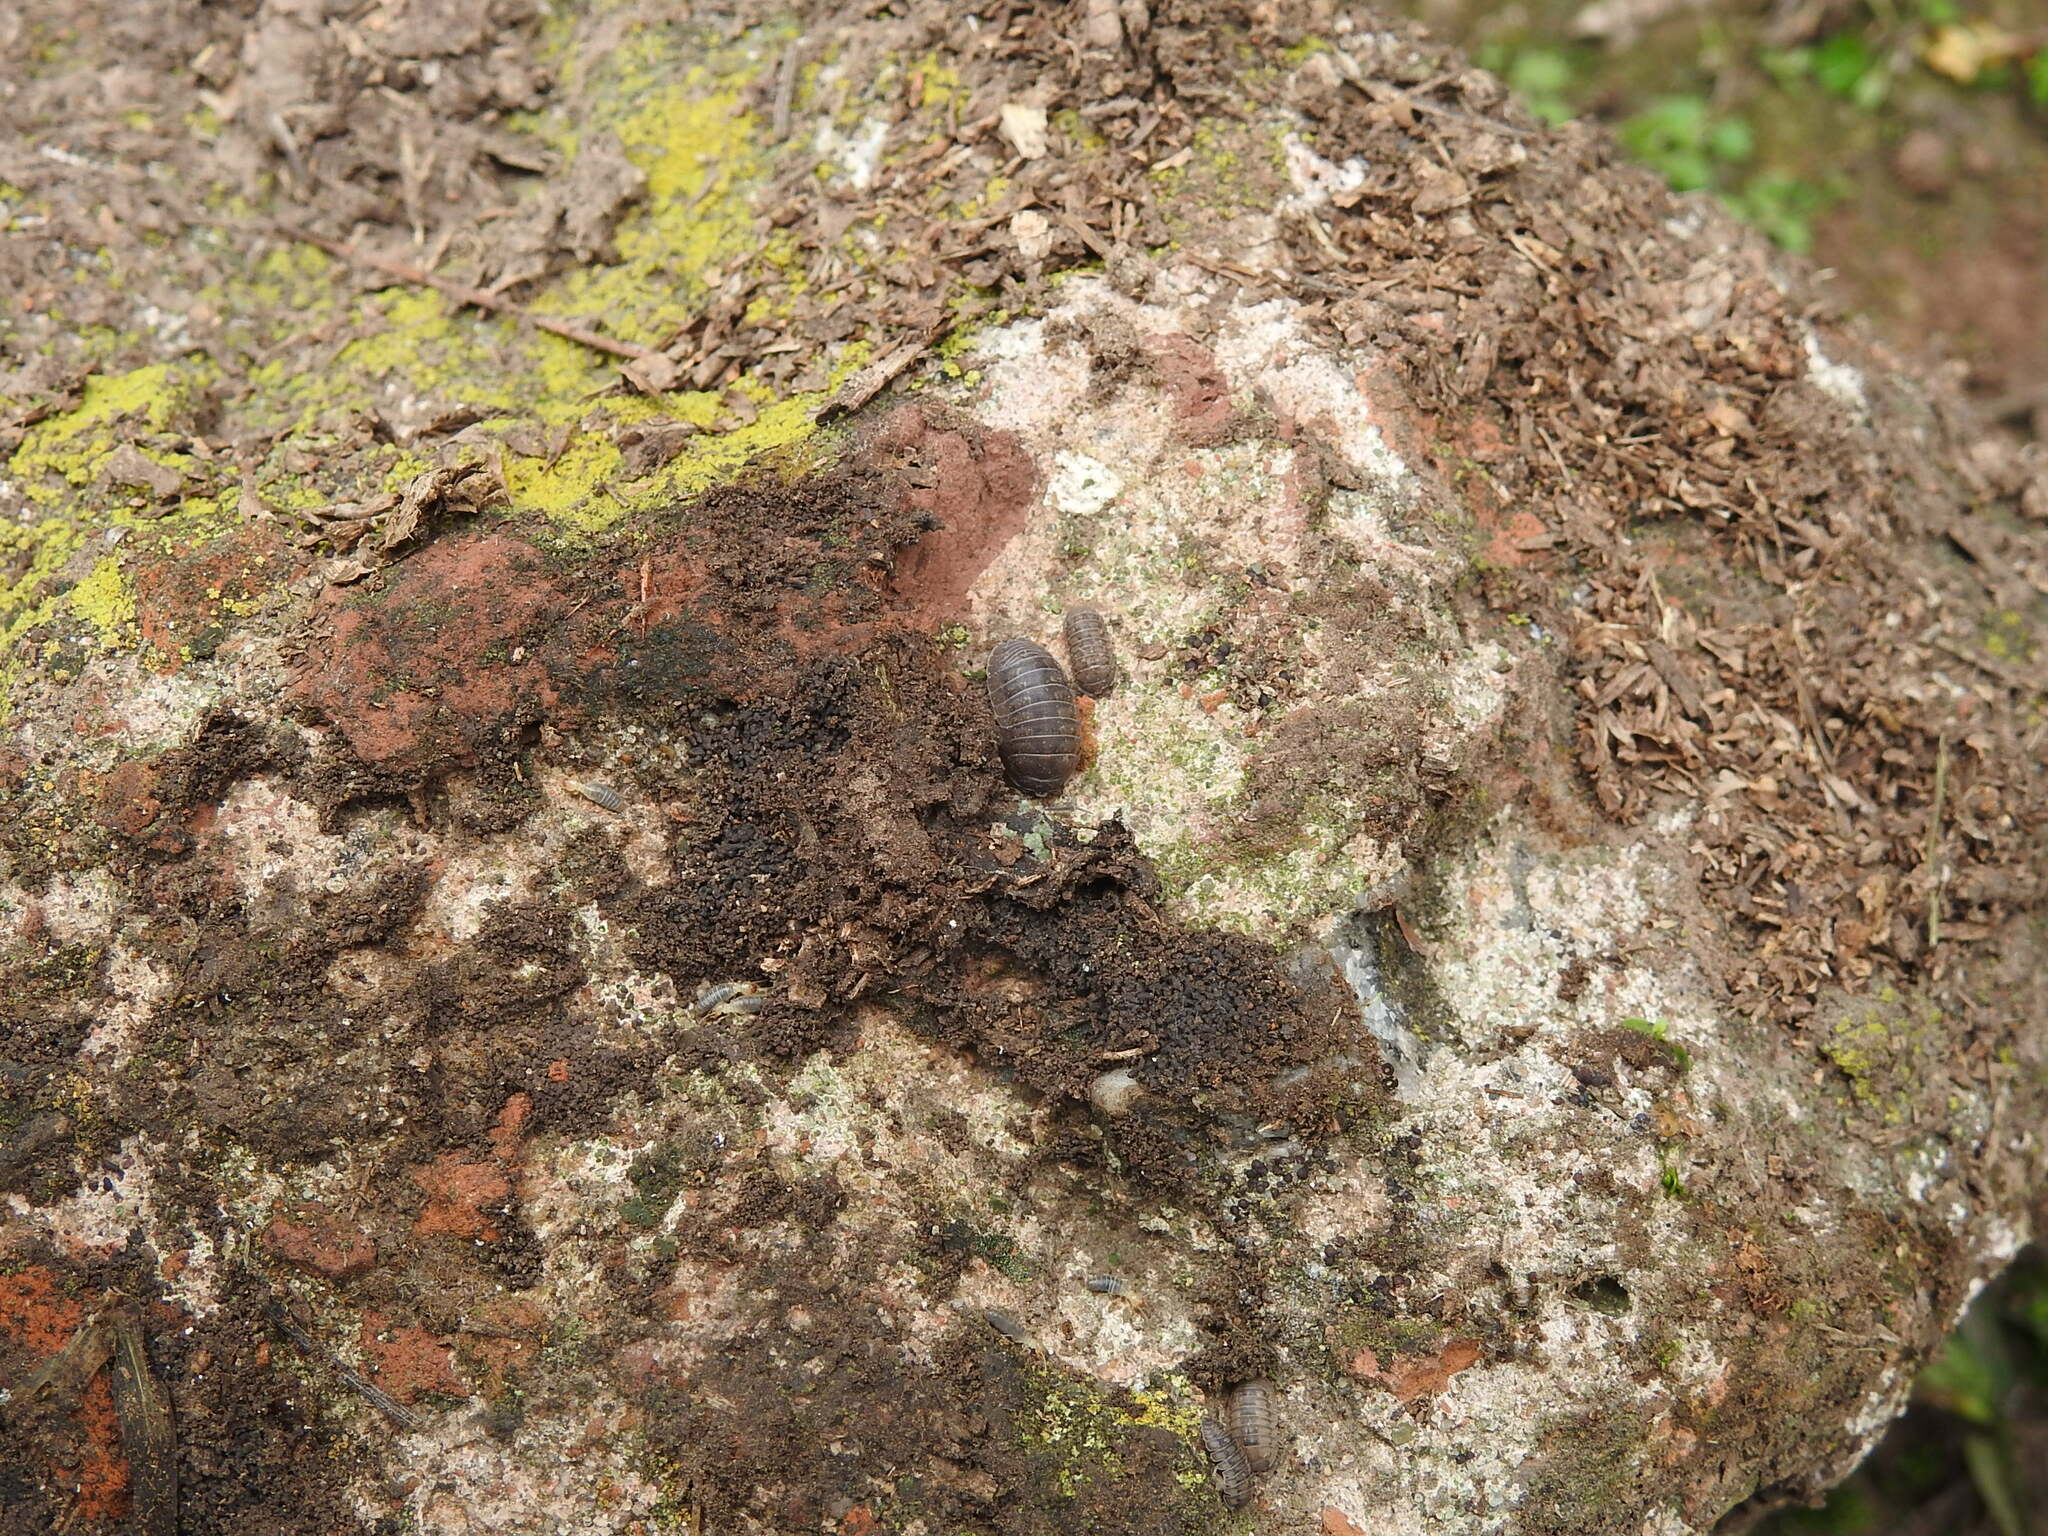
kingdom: Animalia
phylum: Arthropoda
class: Malacostraca
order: Isopoda
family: Armadillidiidae
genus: Armadillidium
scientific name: Armadillidium nasatum
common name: Isopod
